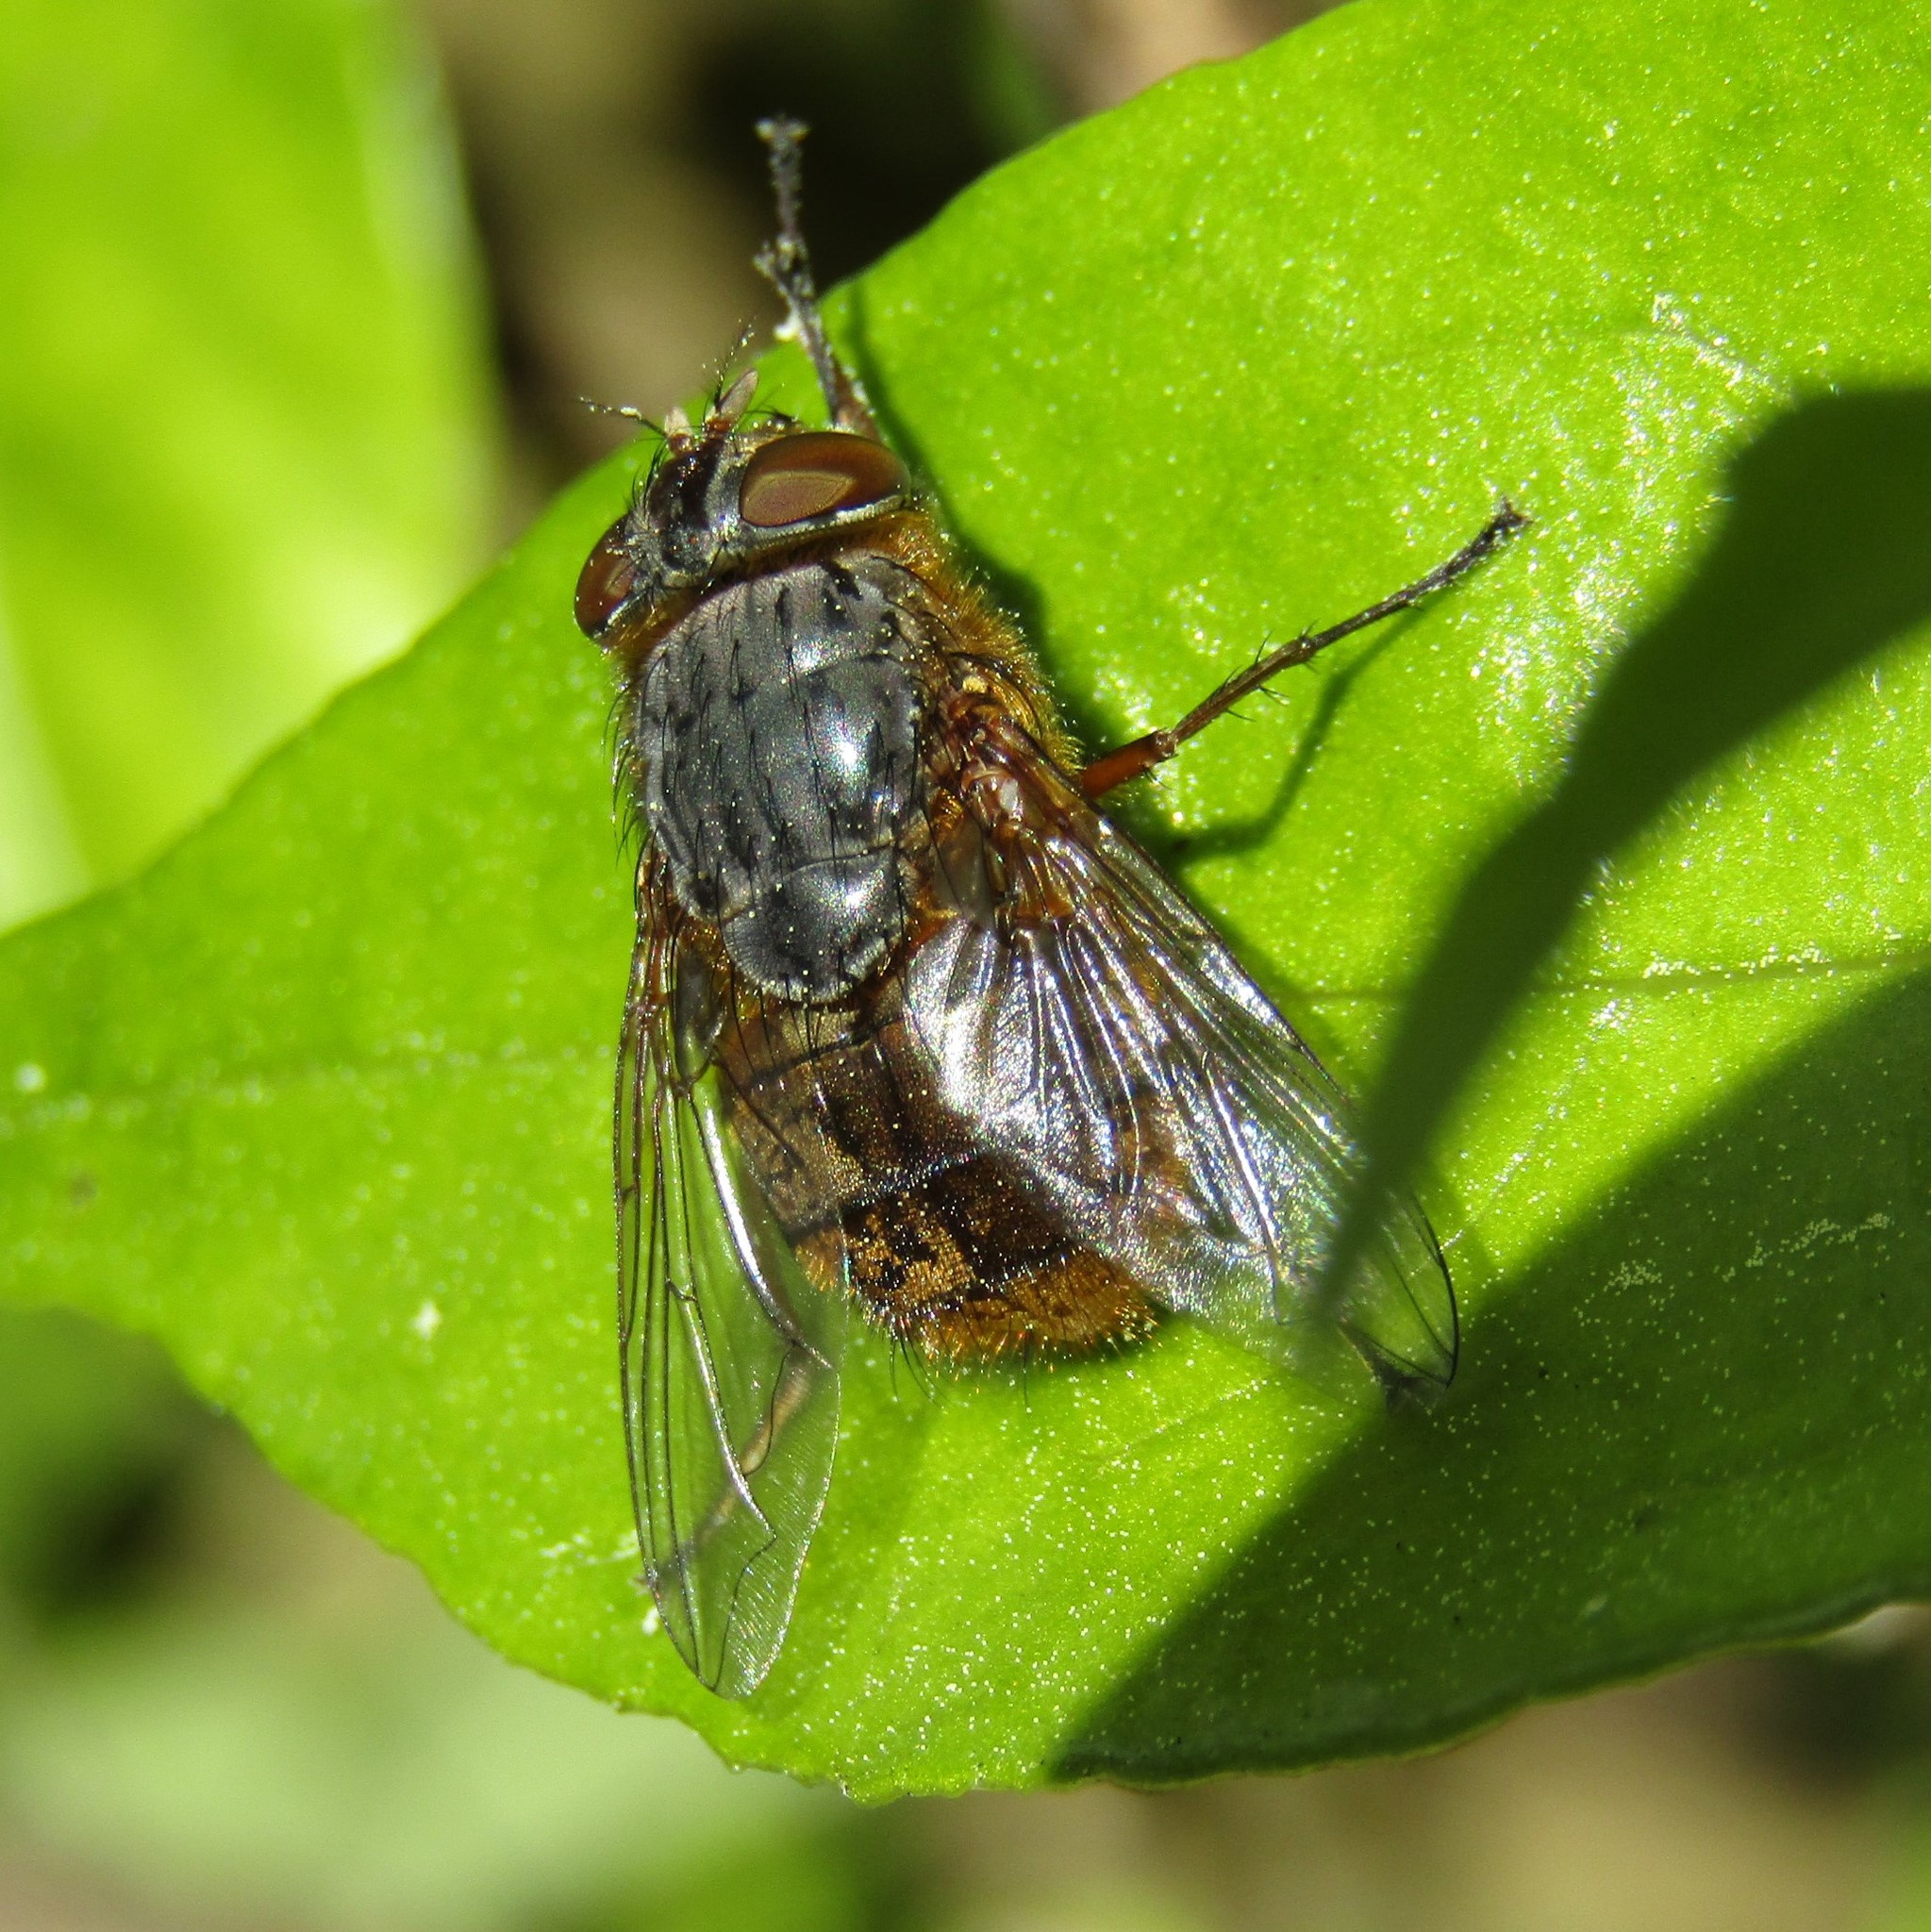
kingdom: Animalia
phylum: Arthropoda
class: Insecta
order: Diptera
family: Calliphoridae
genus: Calliphora
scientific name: Calliphora stygia
